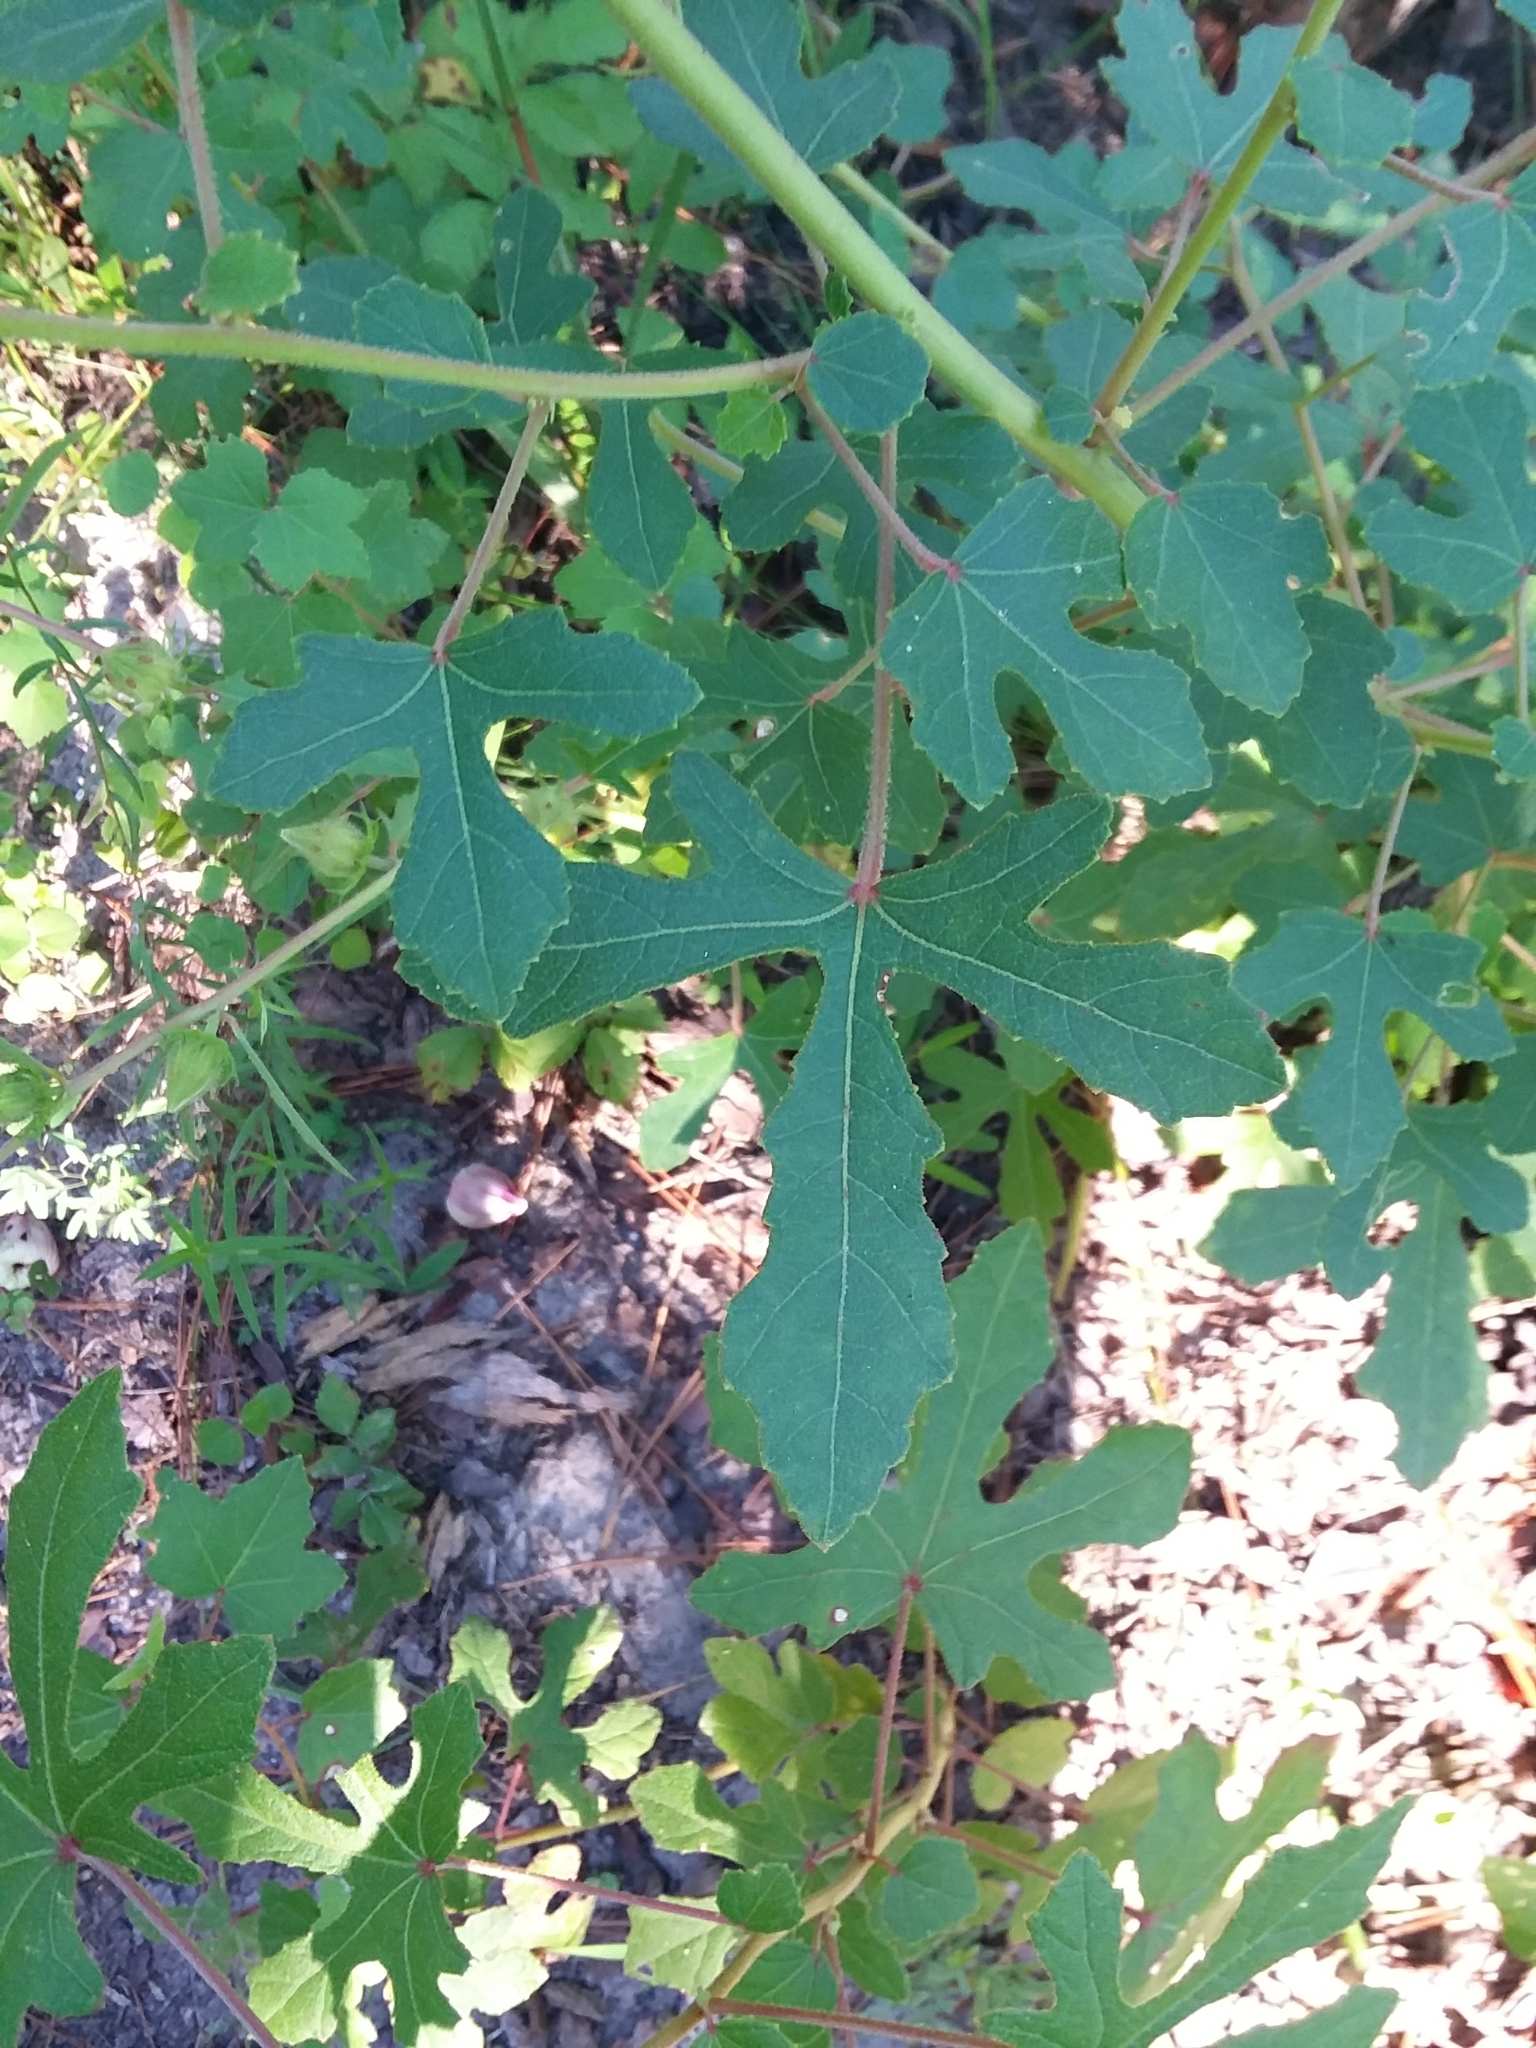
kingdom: Plantae
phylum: Tracheophyta
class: Magnoliopsida
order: Malvales
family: Malvaceae
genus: Hibiscus
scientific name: Hibiscus aculeatus
